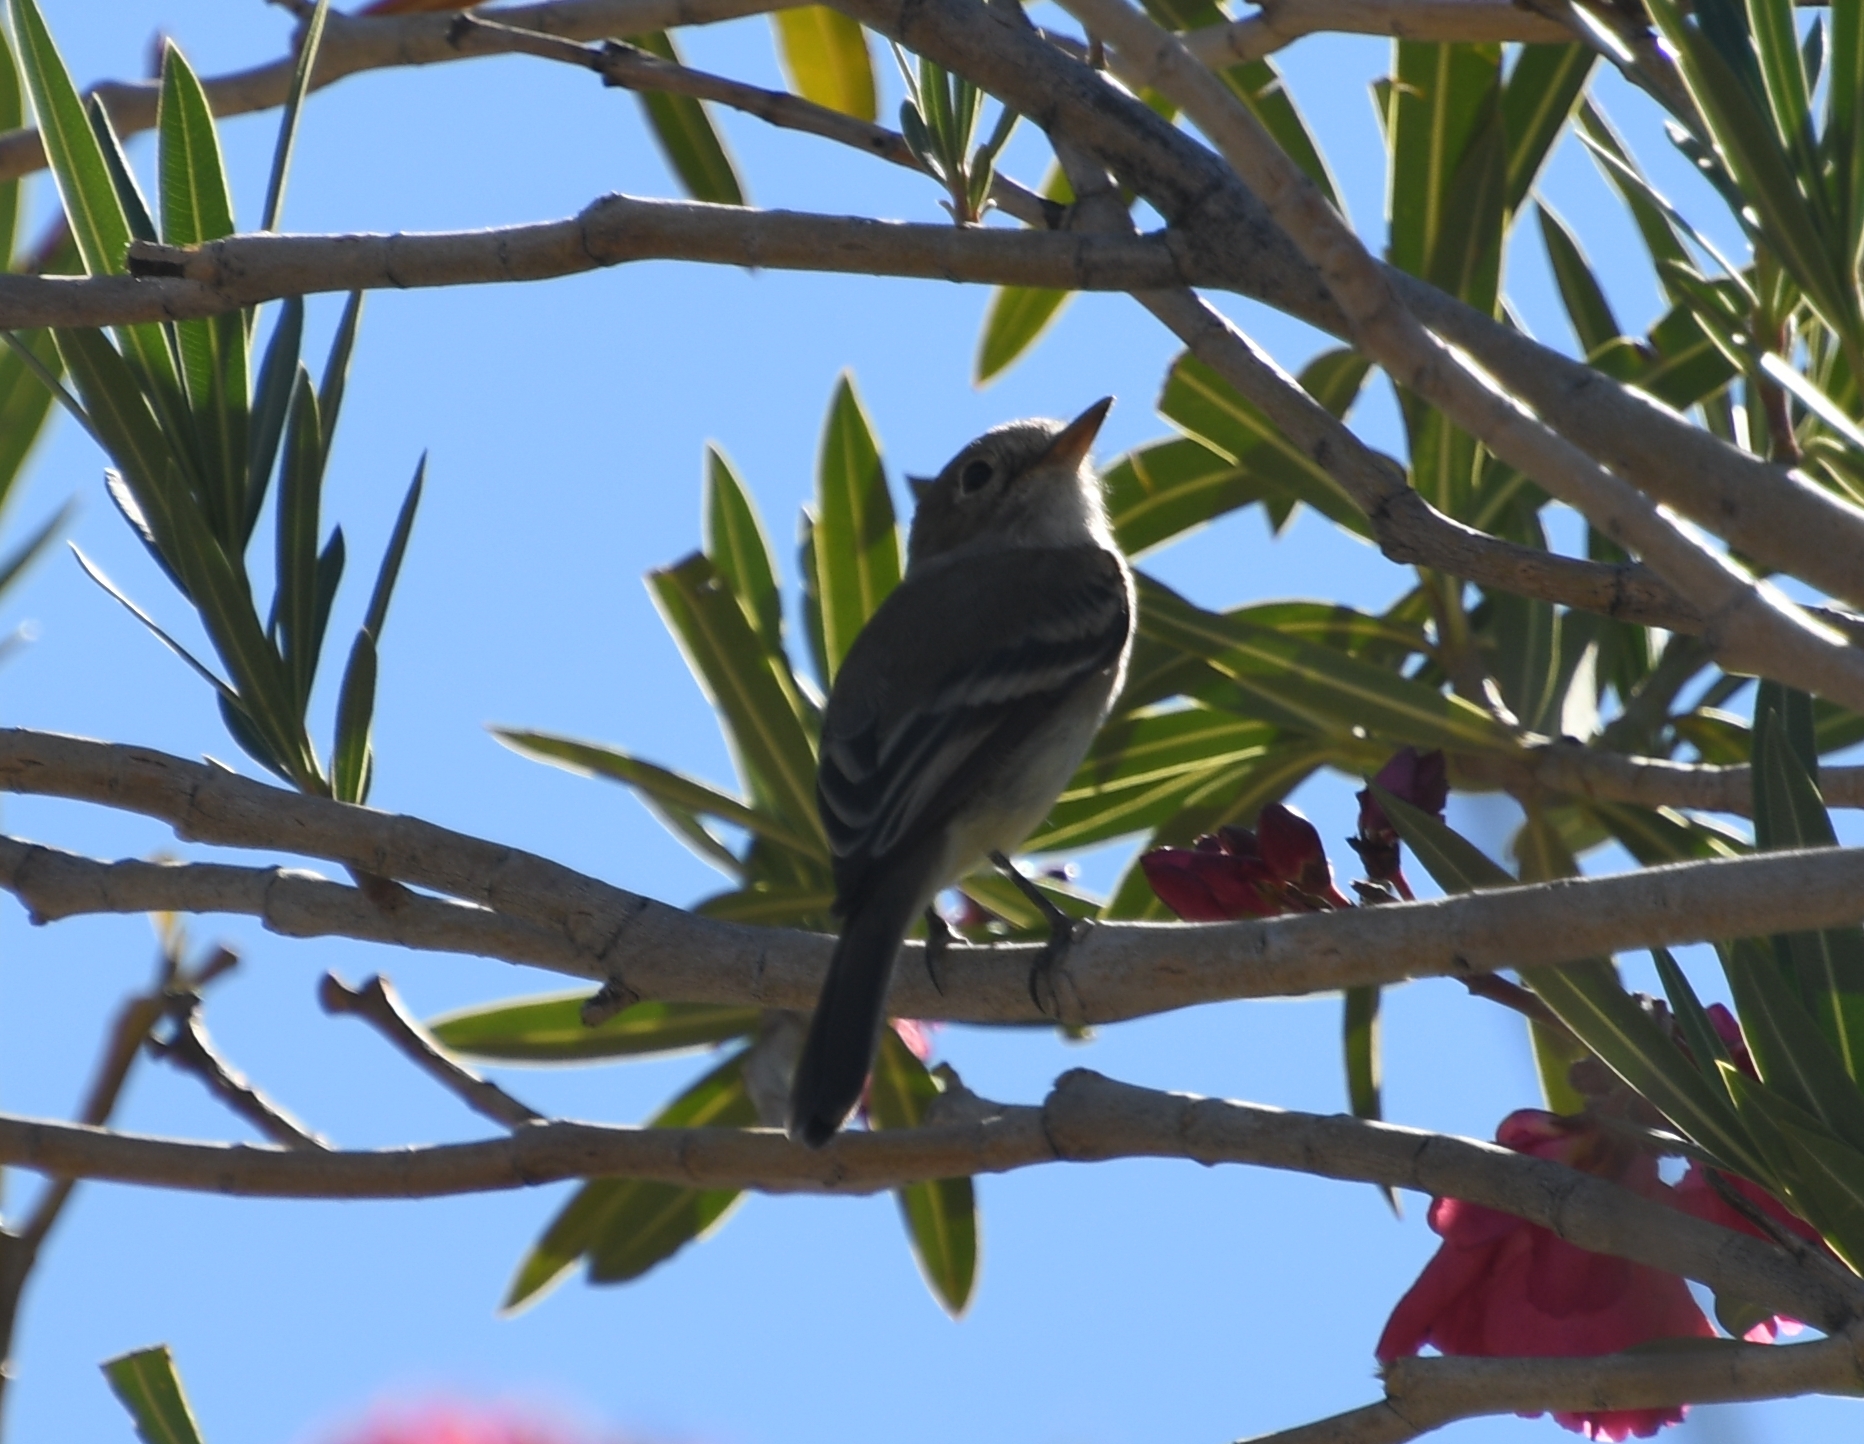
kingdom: Animalia
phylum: Chordata
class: Aves
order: Passeriformes
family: Tyrannidae
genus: Empidonax
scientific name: Empidonax wrightii
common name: Gray flycatcher
